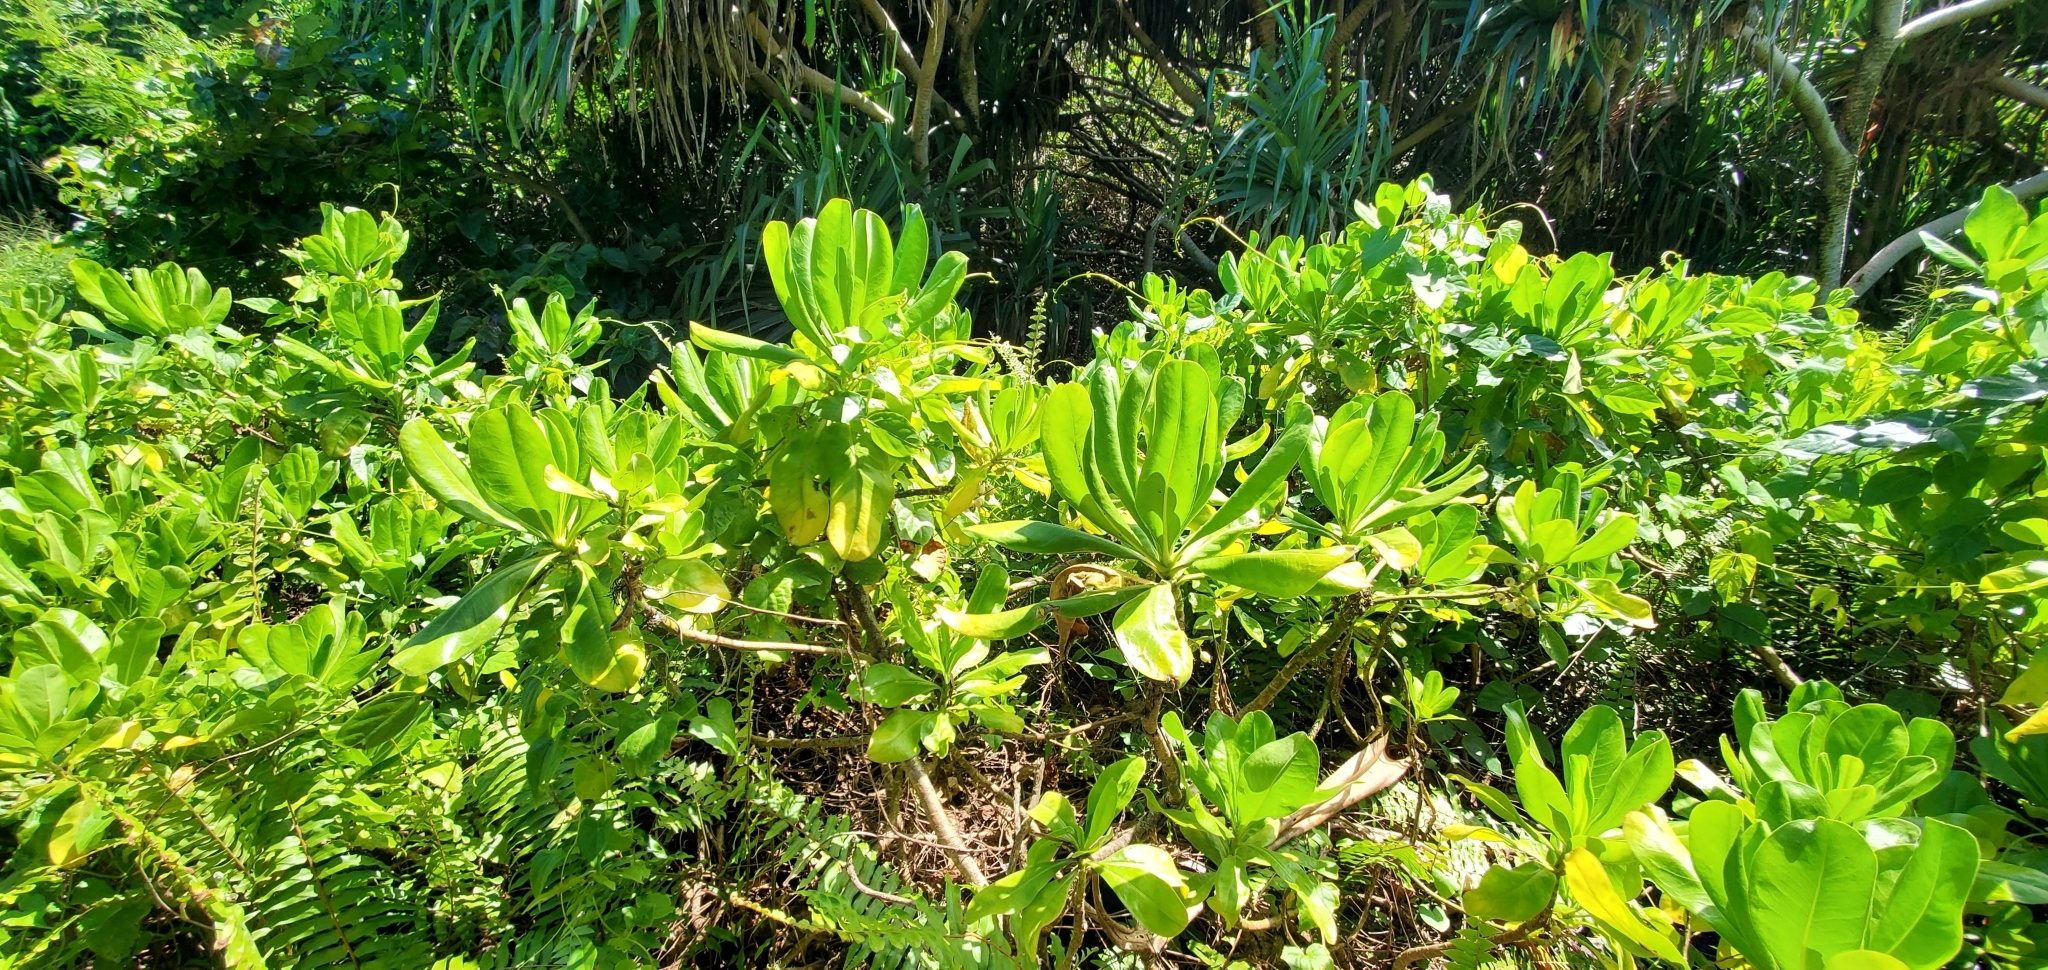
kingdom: Plantae
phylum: Tracheophyta
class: Magnoliopsida
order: Asterales
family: Goodeniaceae
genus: Scaevola
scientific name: Scaevola taccada
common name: Sea lettucetree
